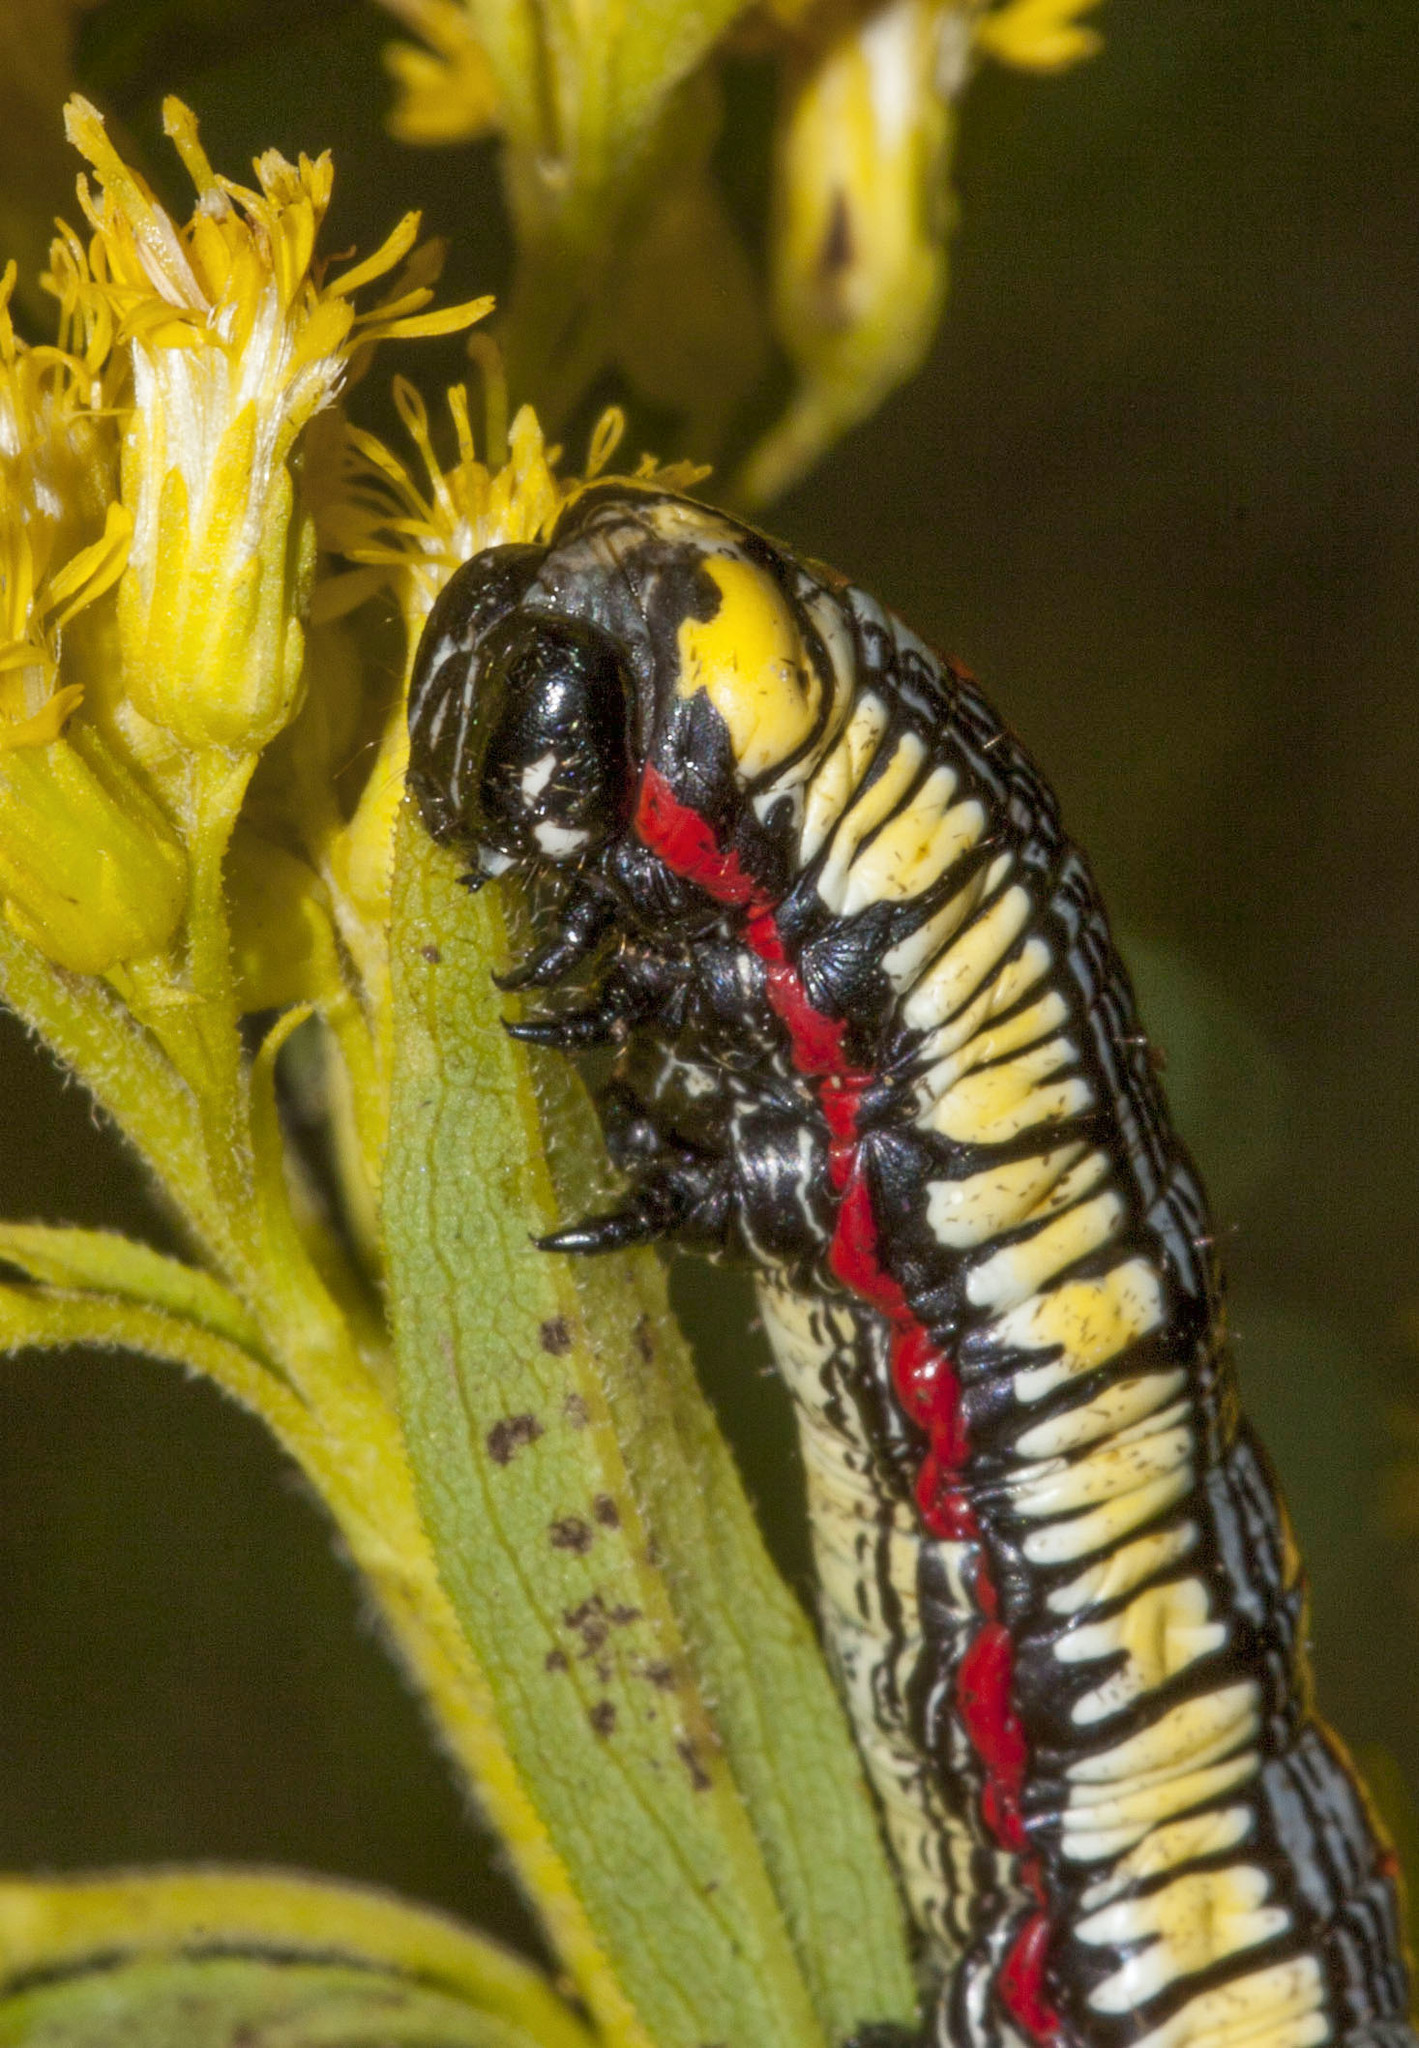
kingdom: Animalia
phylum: Arthropoda
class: Insecta
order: Lepidoptera
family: Noctuidae
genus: Cucullia
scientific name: Cucullia convexipennis
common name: Brown-hooded owlet
